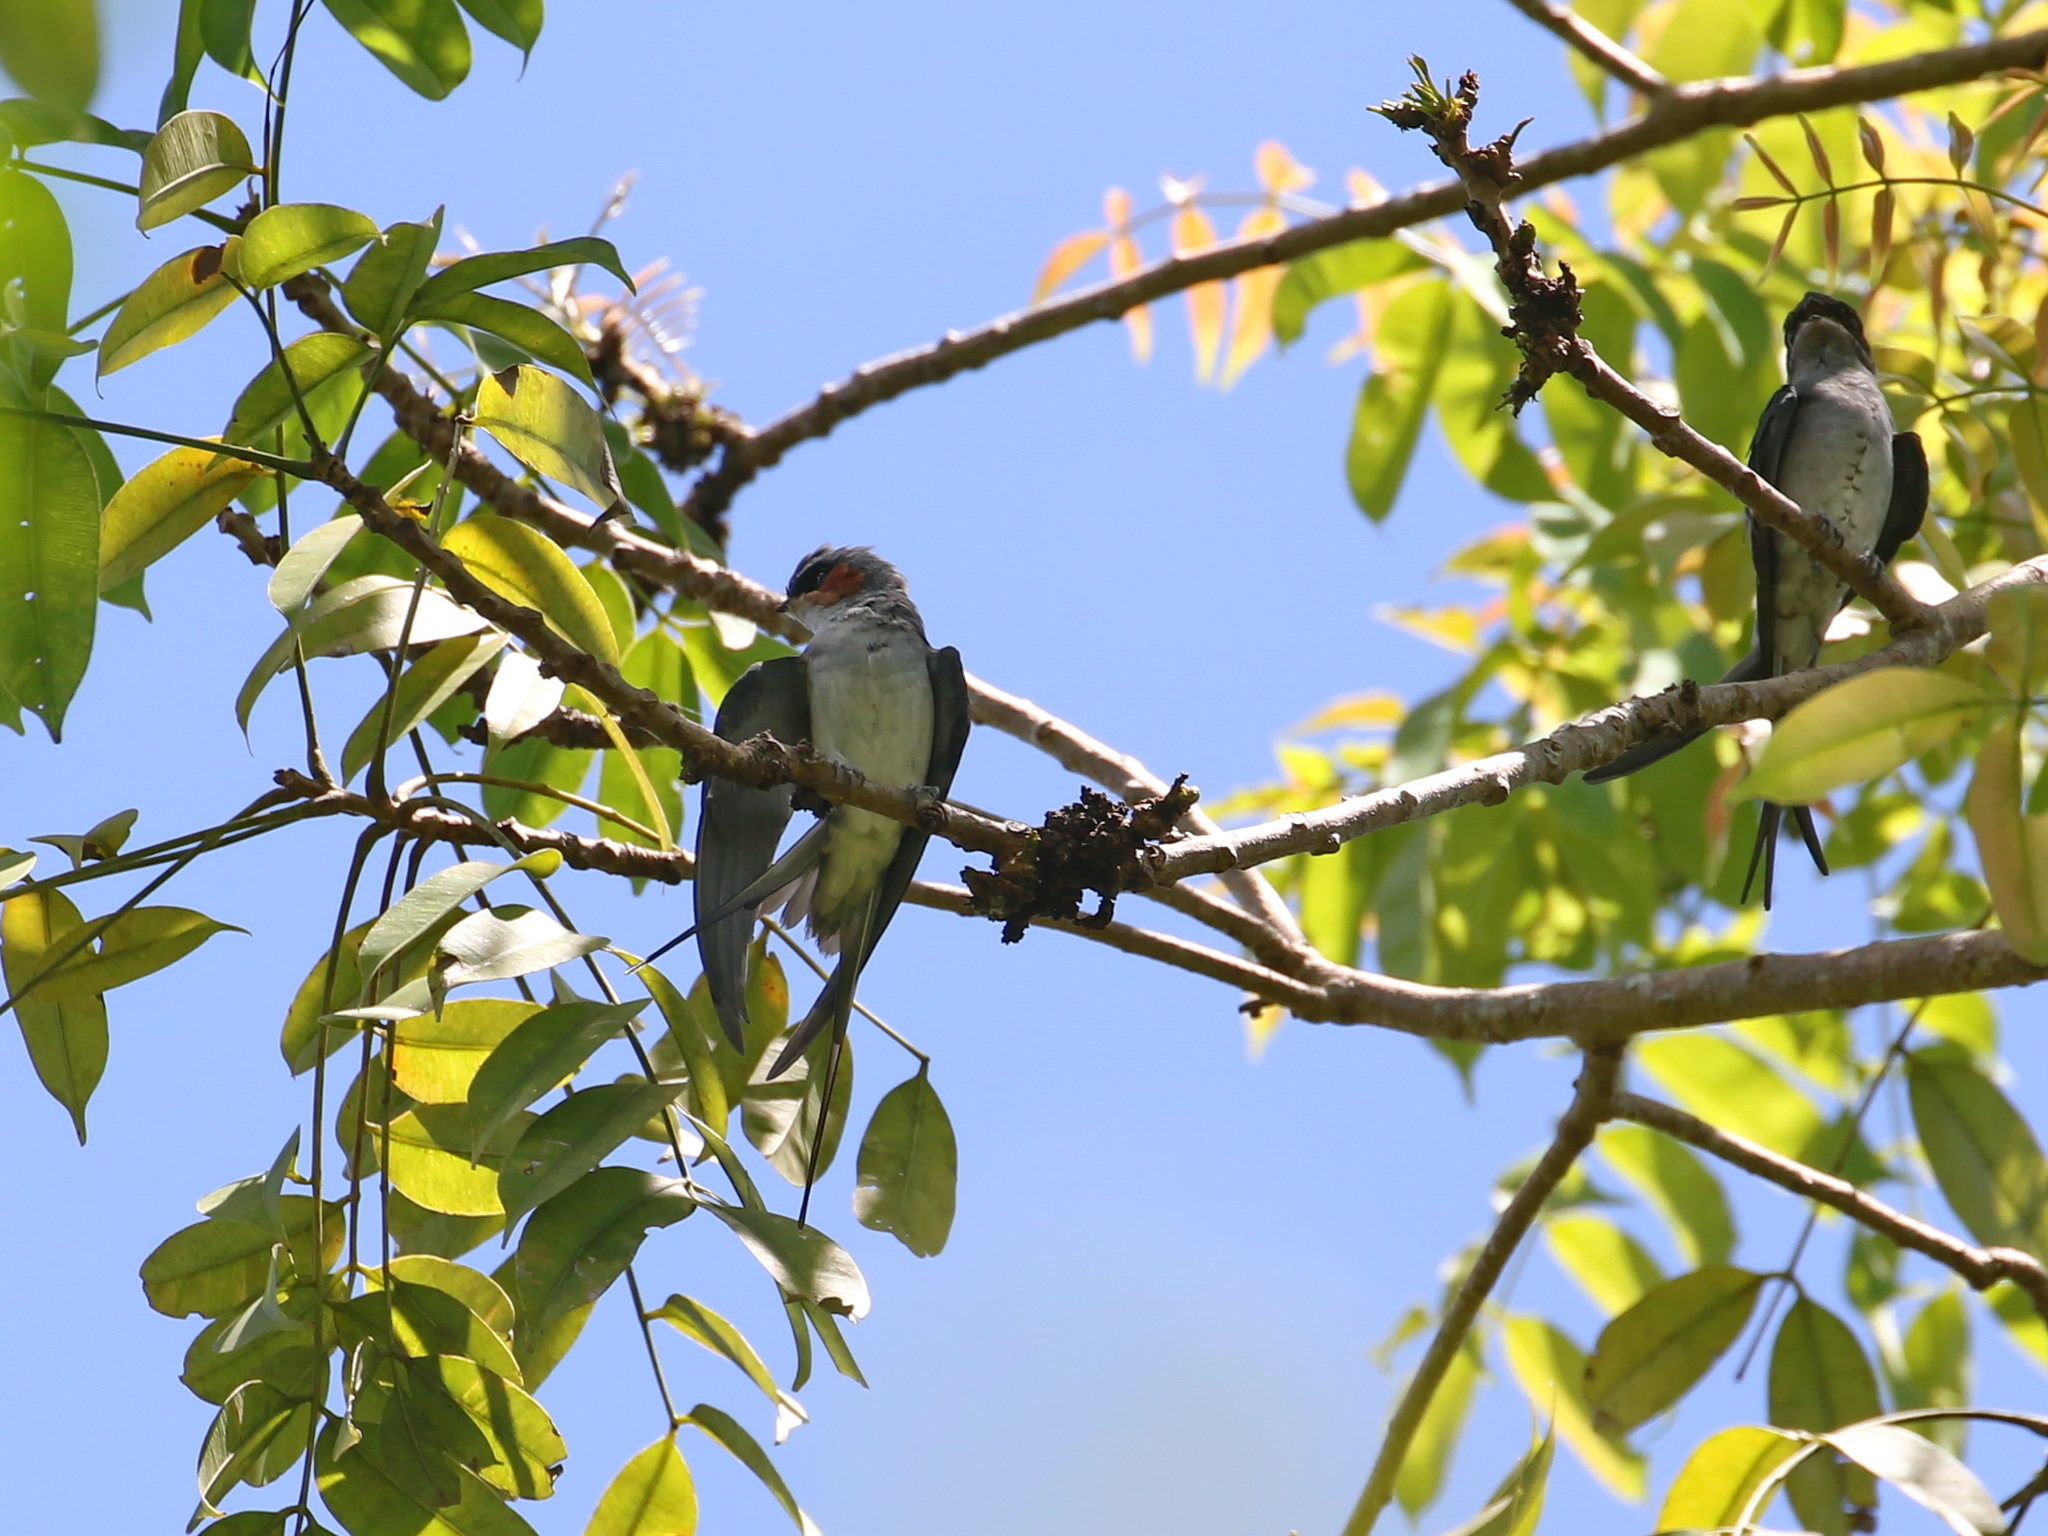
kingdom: Animalia
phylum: Chordata
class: Aves
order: Apodiformes
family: Hemiprocnidae
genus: Hemiprocne
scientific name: Hemiprocne coronata
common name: Crested treeswift
